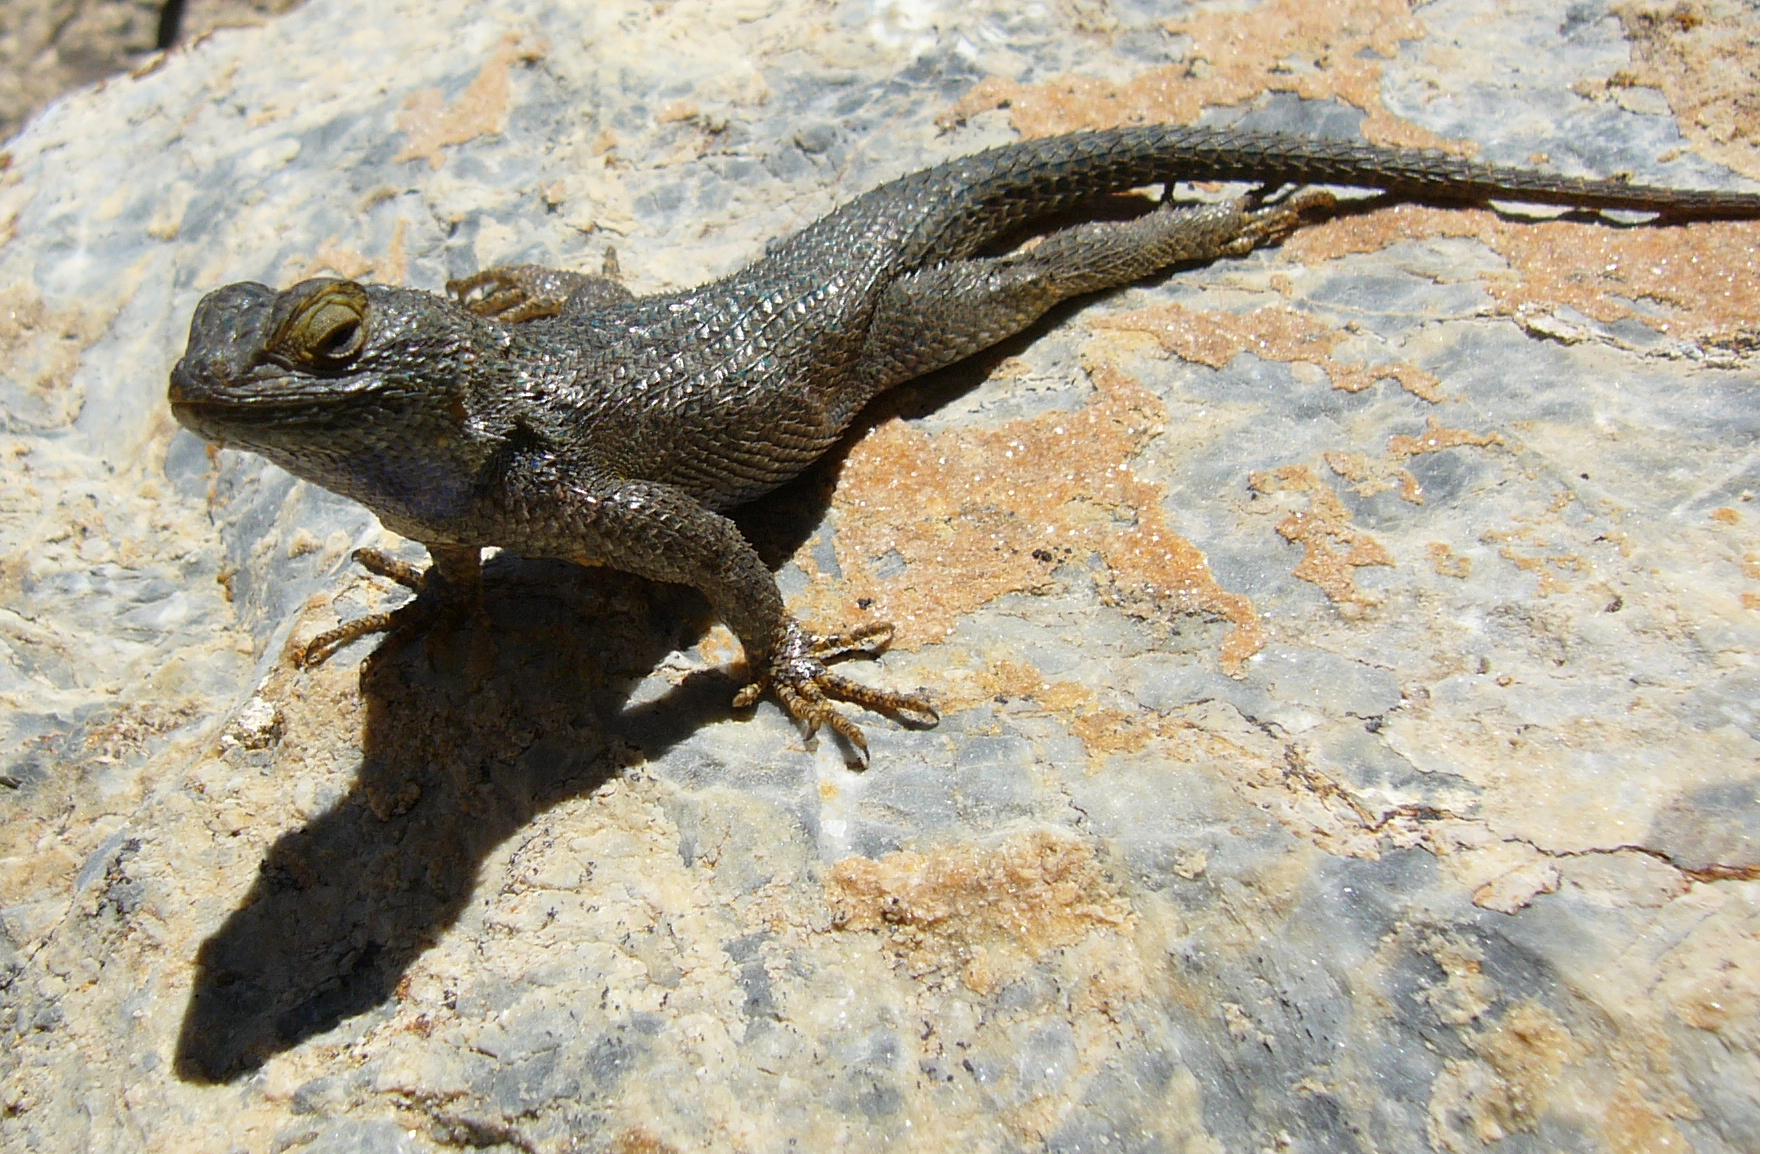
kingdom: Animalia
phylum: Chordata
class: Squamata
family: Phrynosomatidae
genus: Sceloporus
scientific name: Sceloporus occidentalis
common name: Western fence lizard
